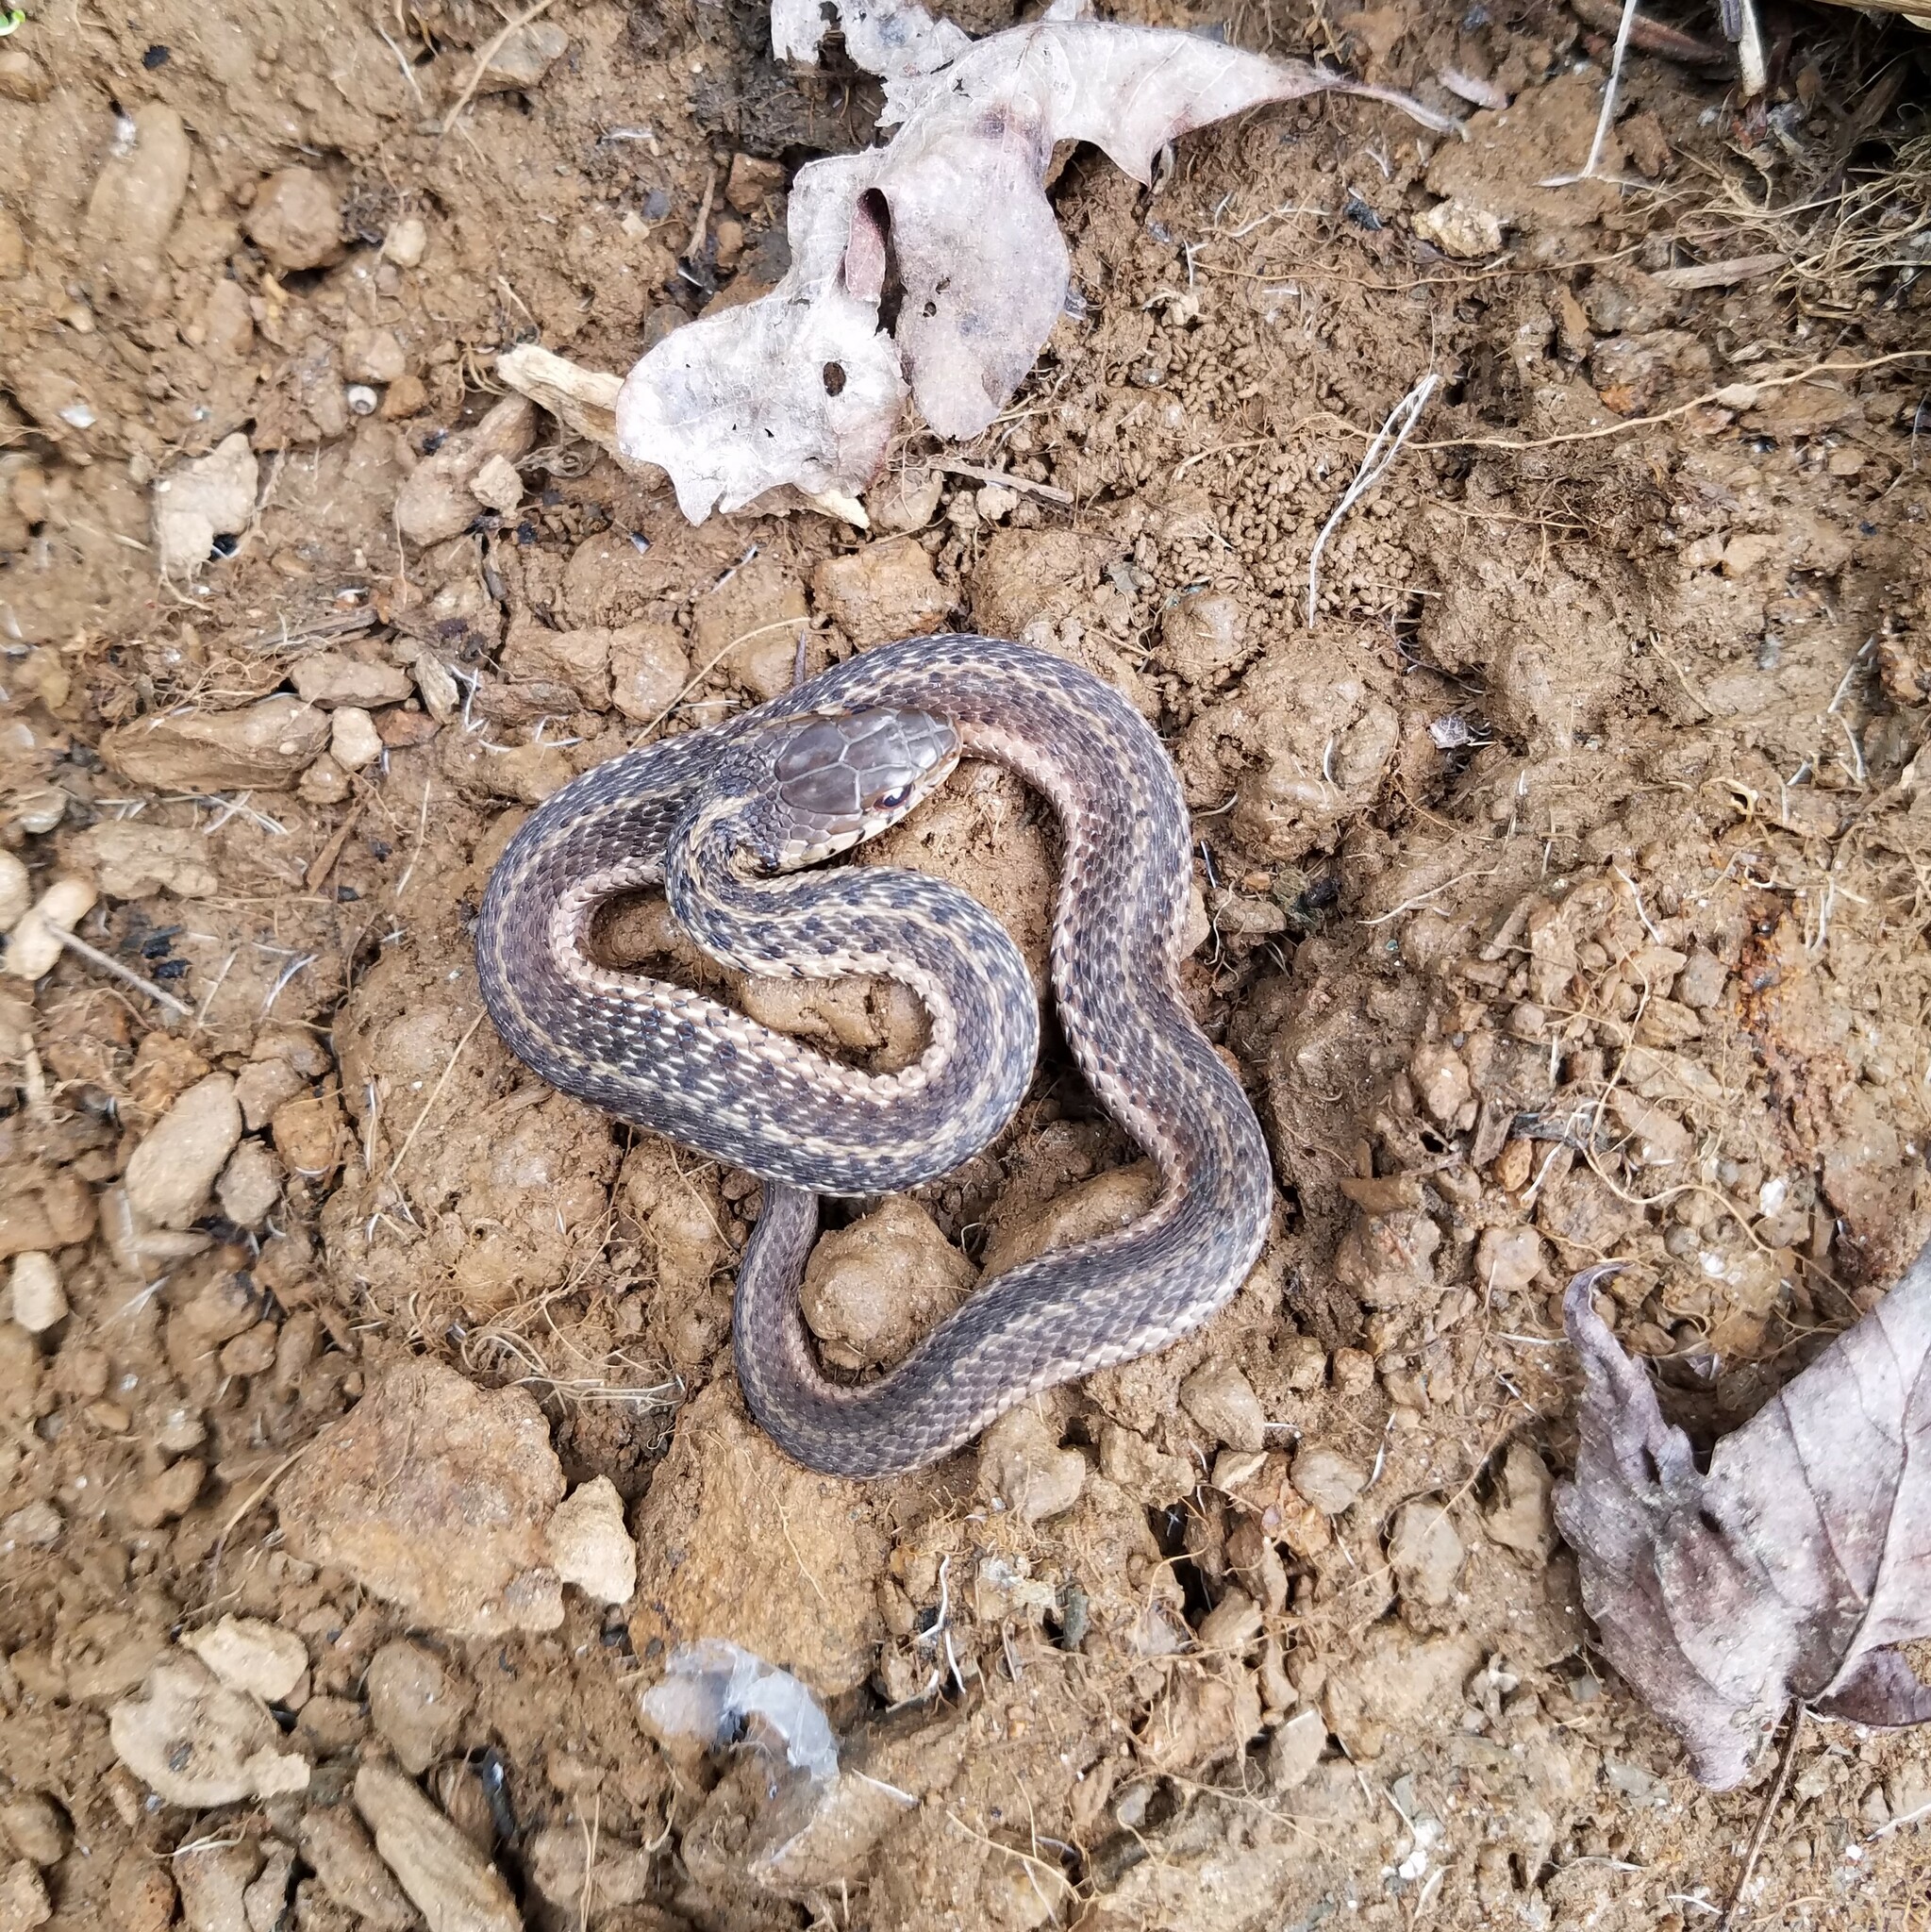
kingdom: Animalia
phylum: Chordata
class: Squamata
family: Colubridae
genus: Thamnophis
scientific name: Thamnophis sirtalis
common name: Common garter snake
